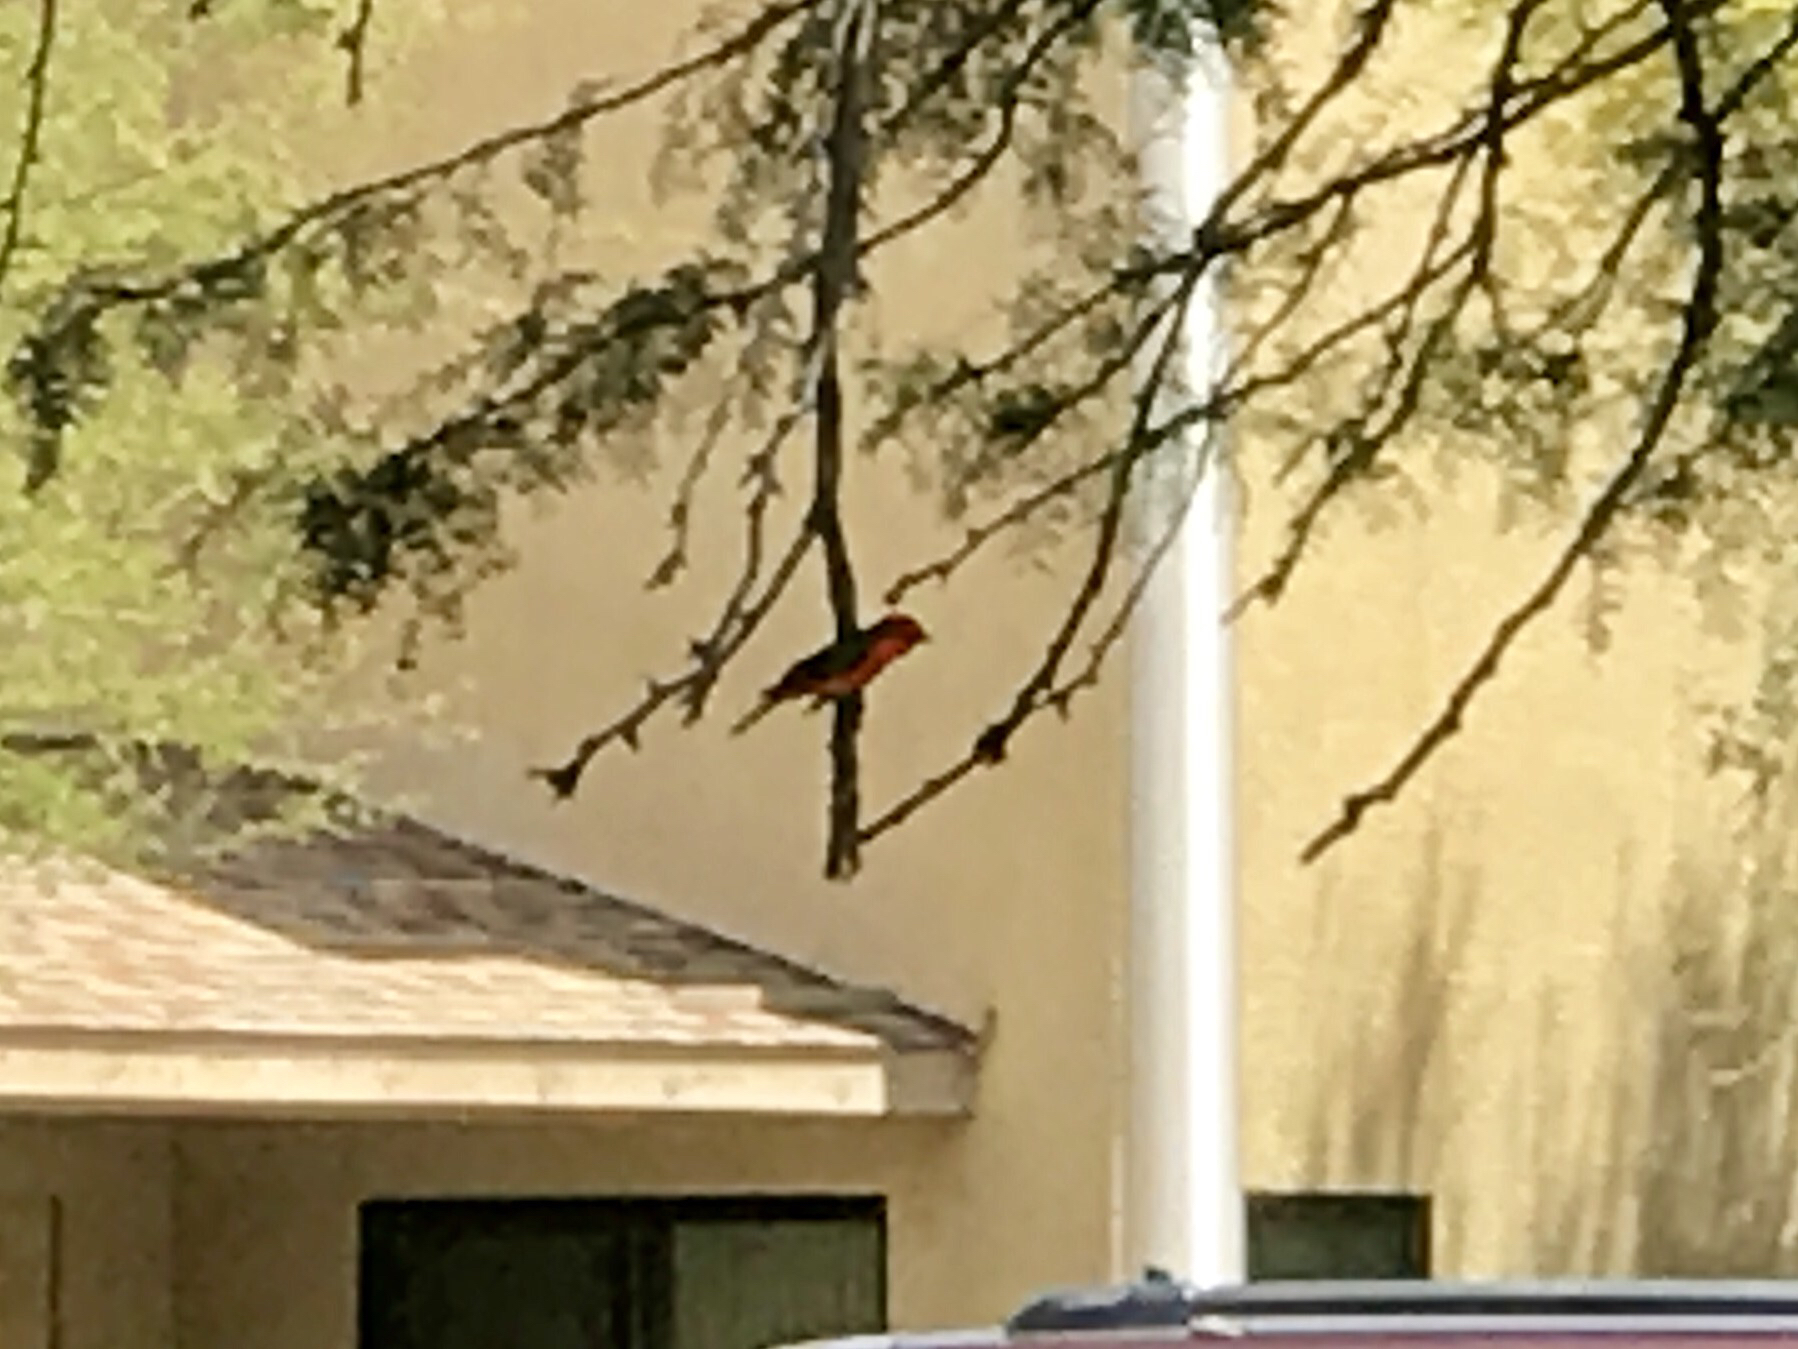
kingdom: Animalia
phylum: Chordata
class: Aves
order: Passeriformes
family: Tyrannidae
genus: Pyrocephalus
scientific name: Pyrocephalus rubinus
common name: Vermilion flycatcher
